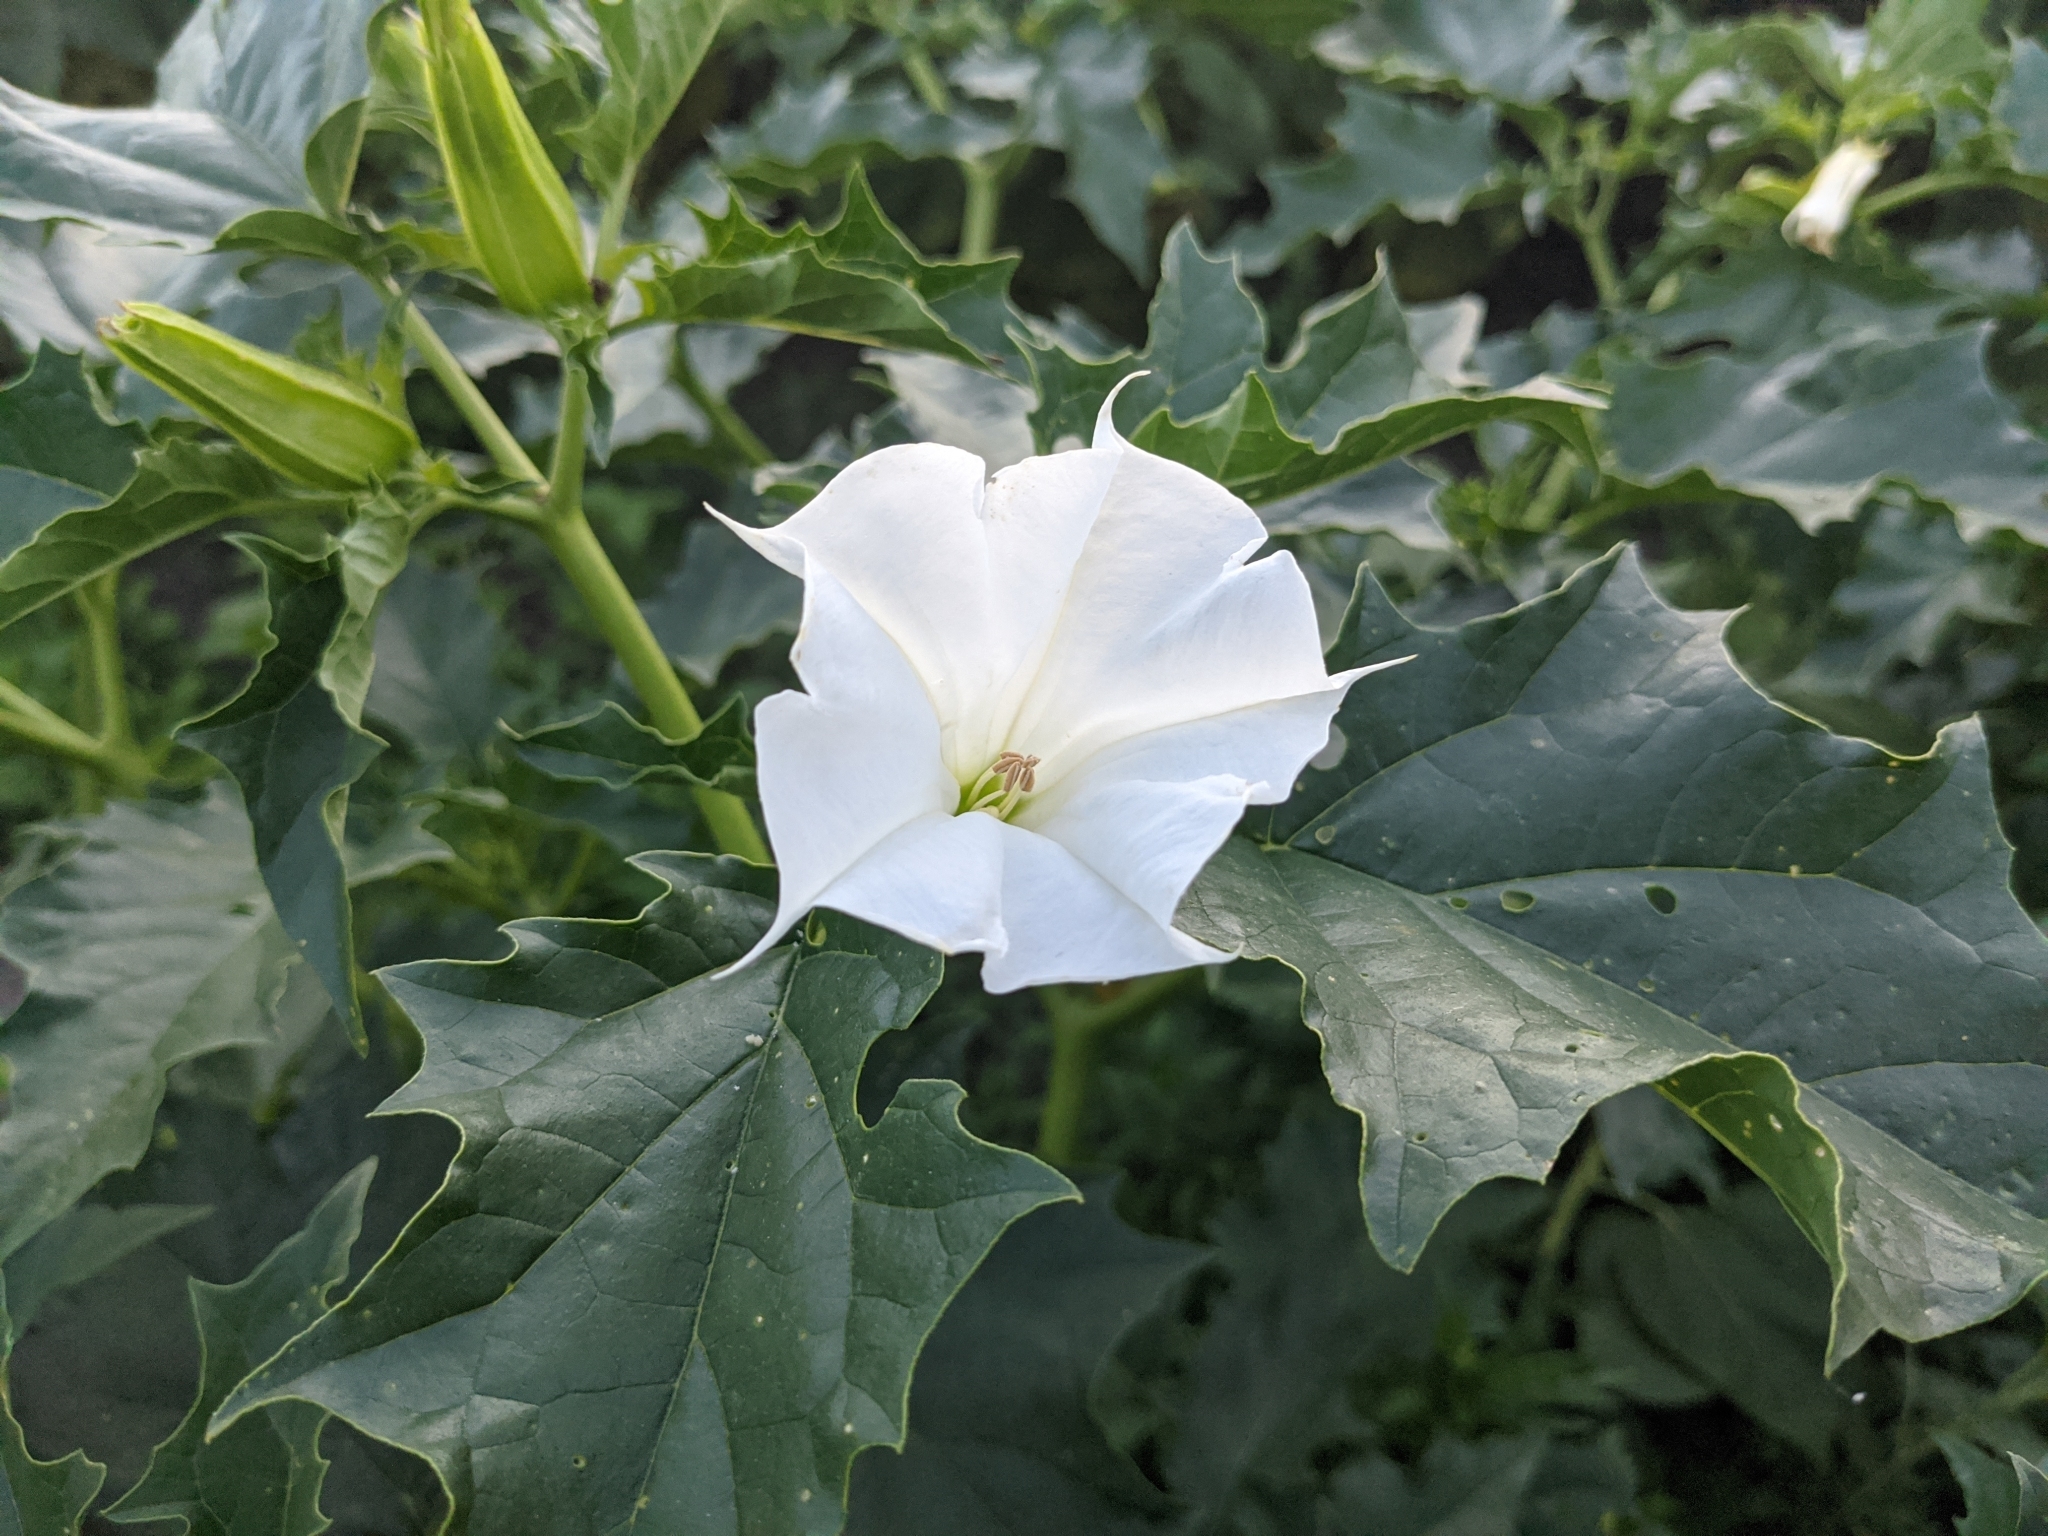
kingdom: Plantae
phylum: Tracheophyta
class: Magnoliopsida
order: Solanales
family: Solanaceae
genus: Datura
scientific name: Datura stramonium
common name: Thorn-apple
